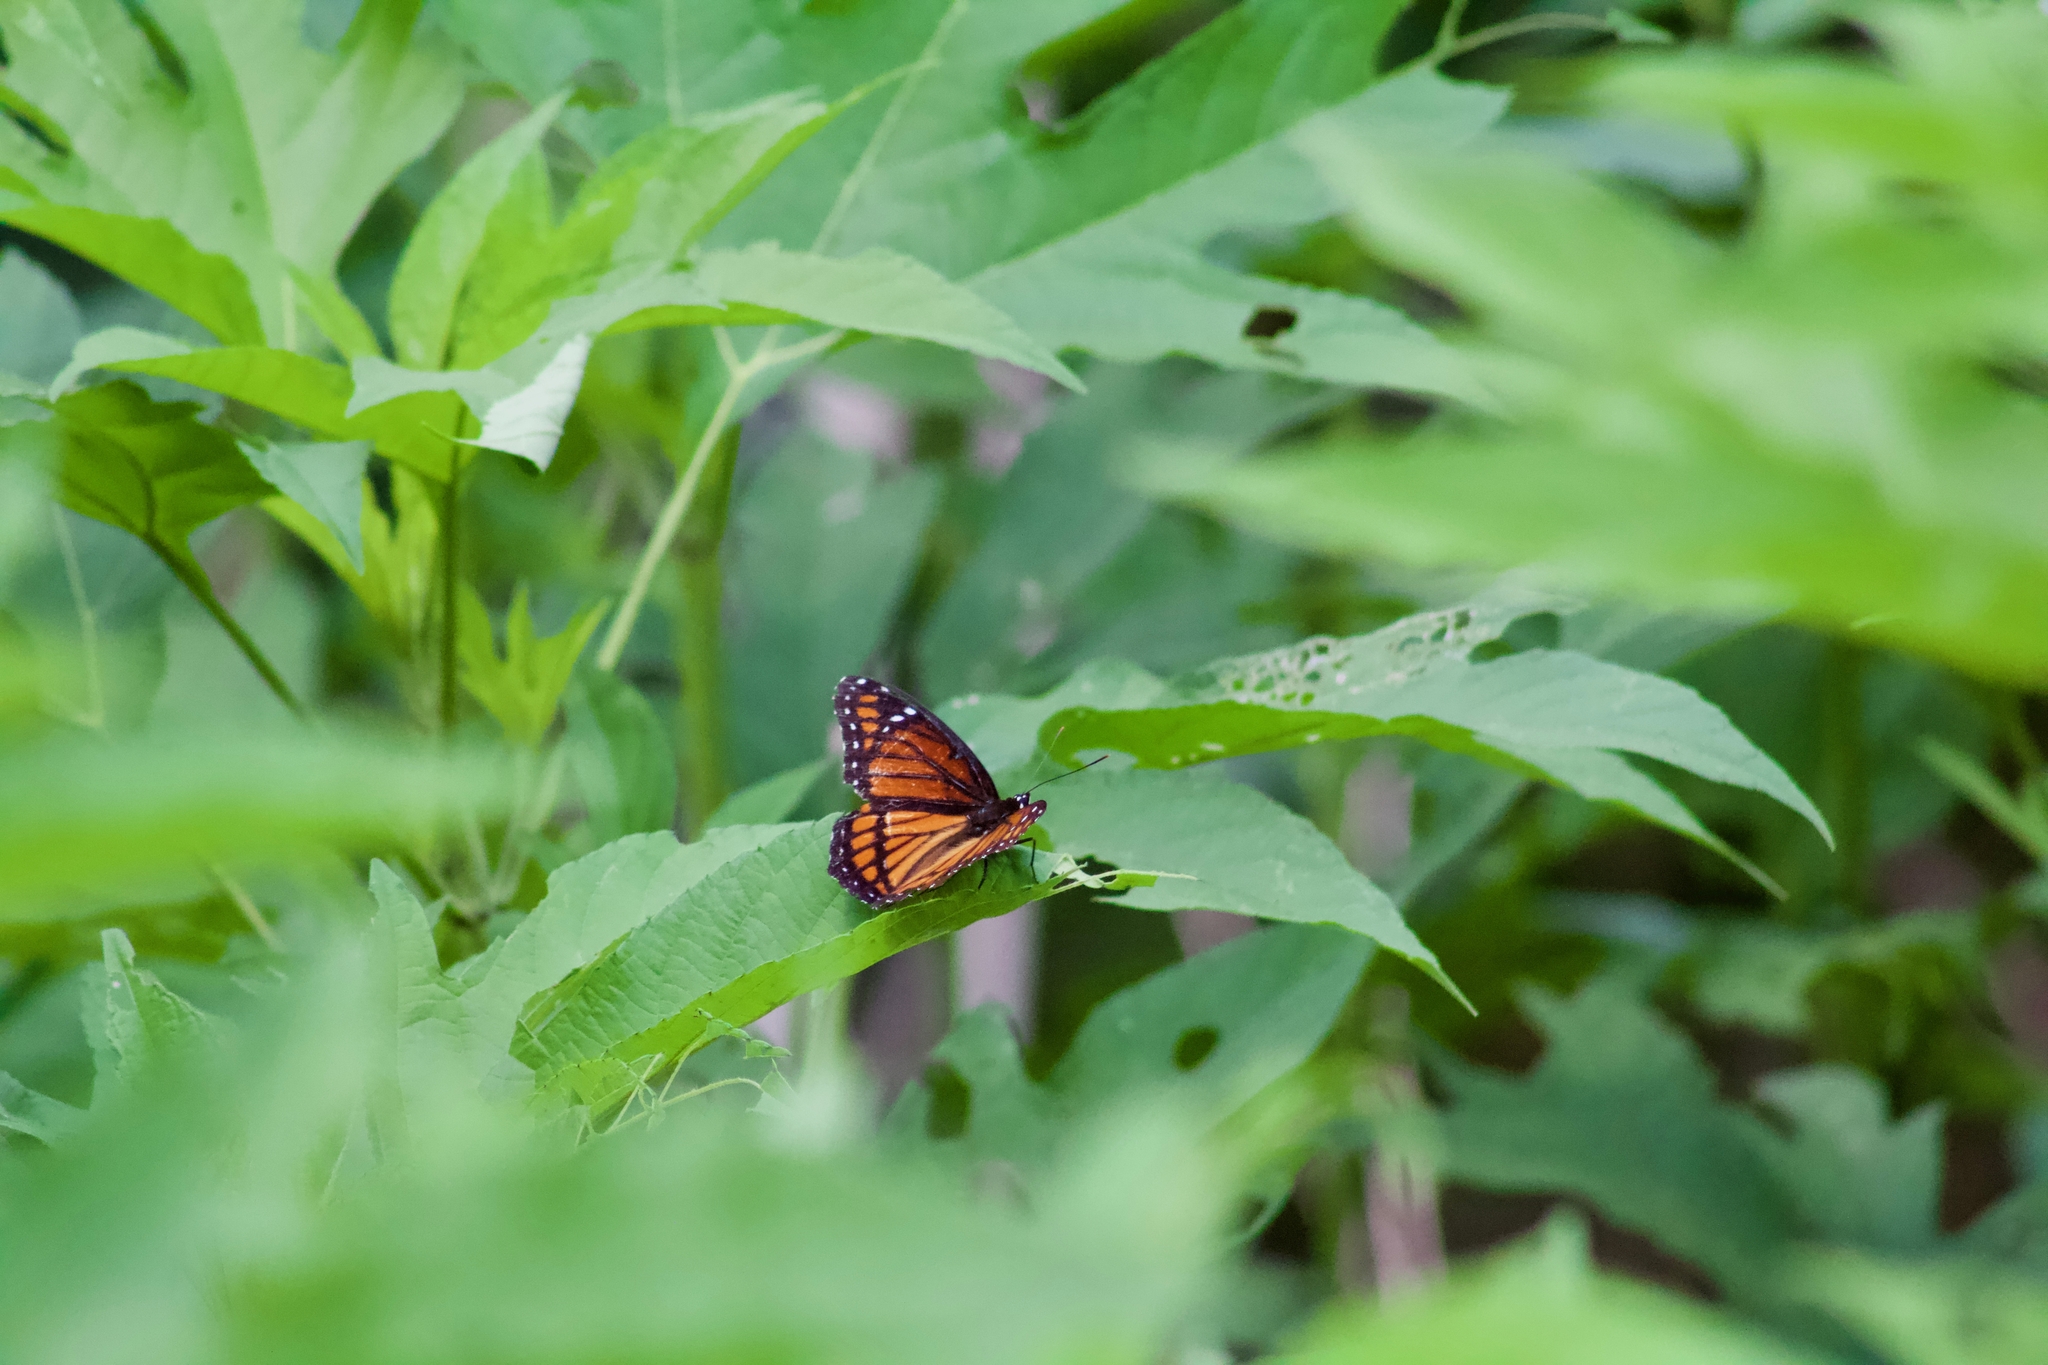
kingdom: Animalia
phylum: Arthropoda
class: Insecta
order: Lepidoptera
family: Nymphalidae
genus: Limenitis
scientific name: Limenitis archippus
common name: Viceroy
